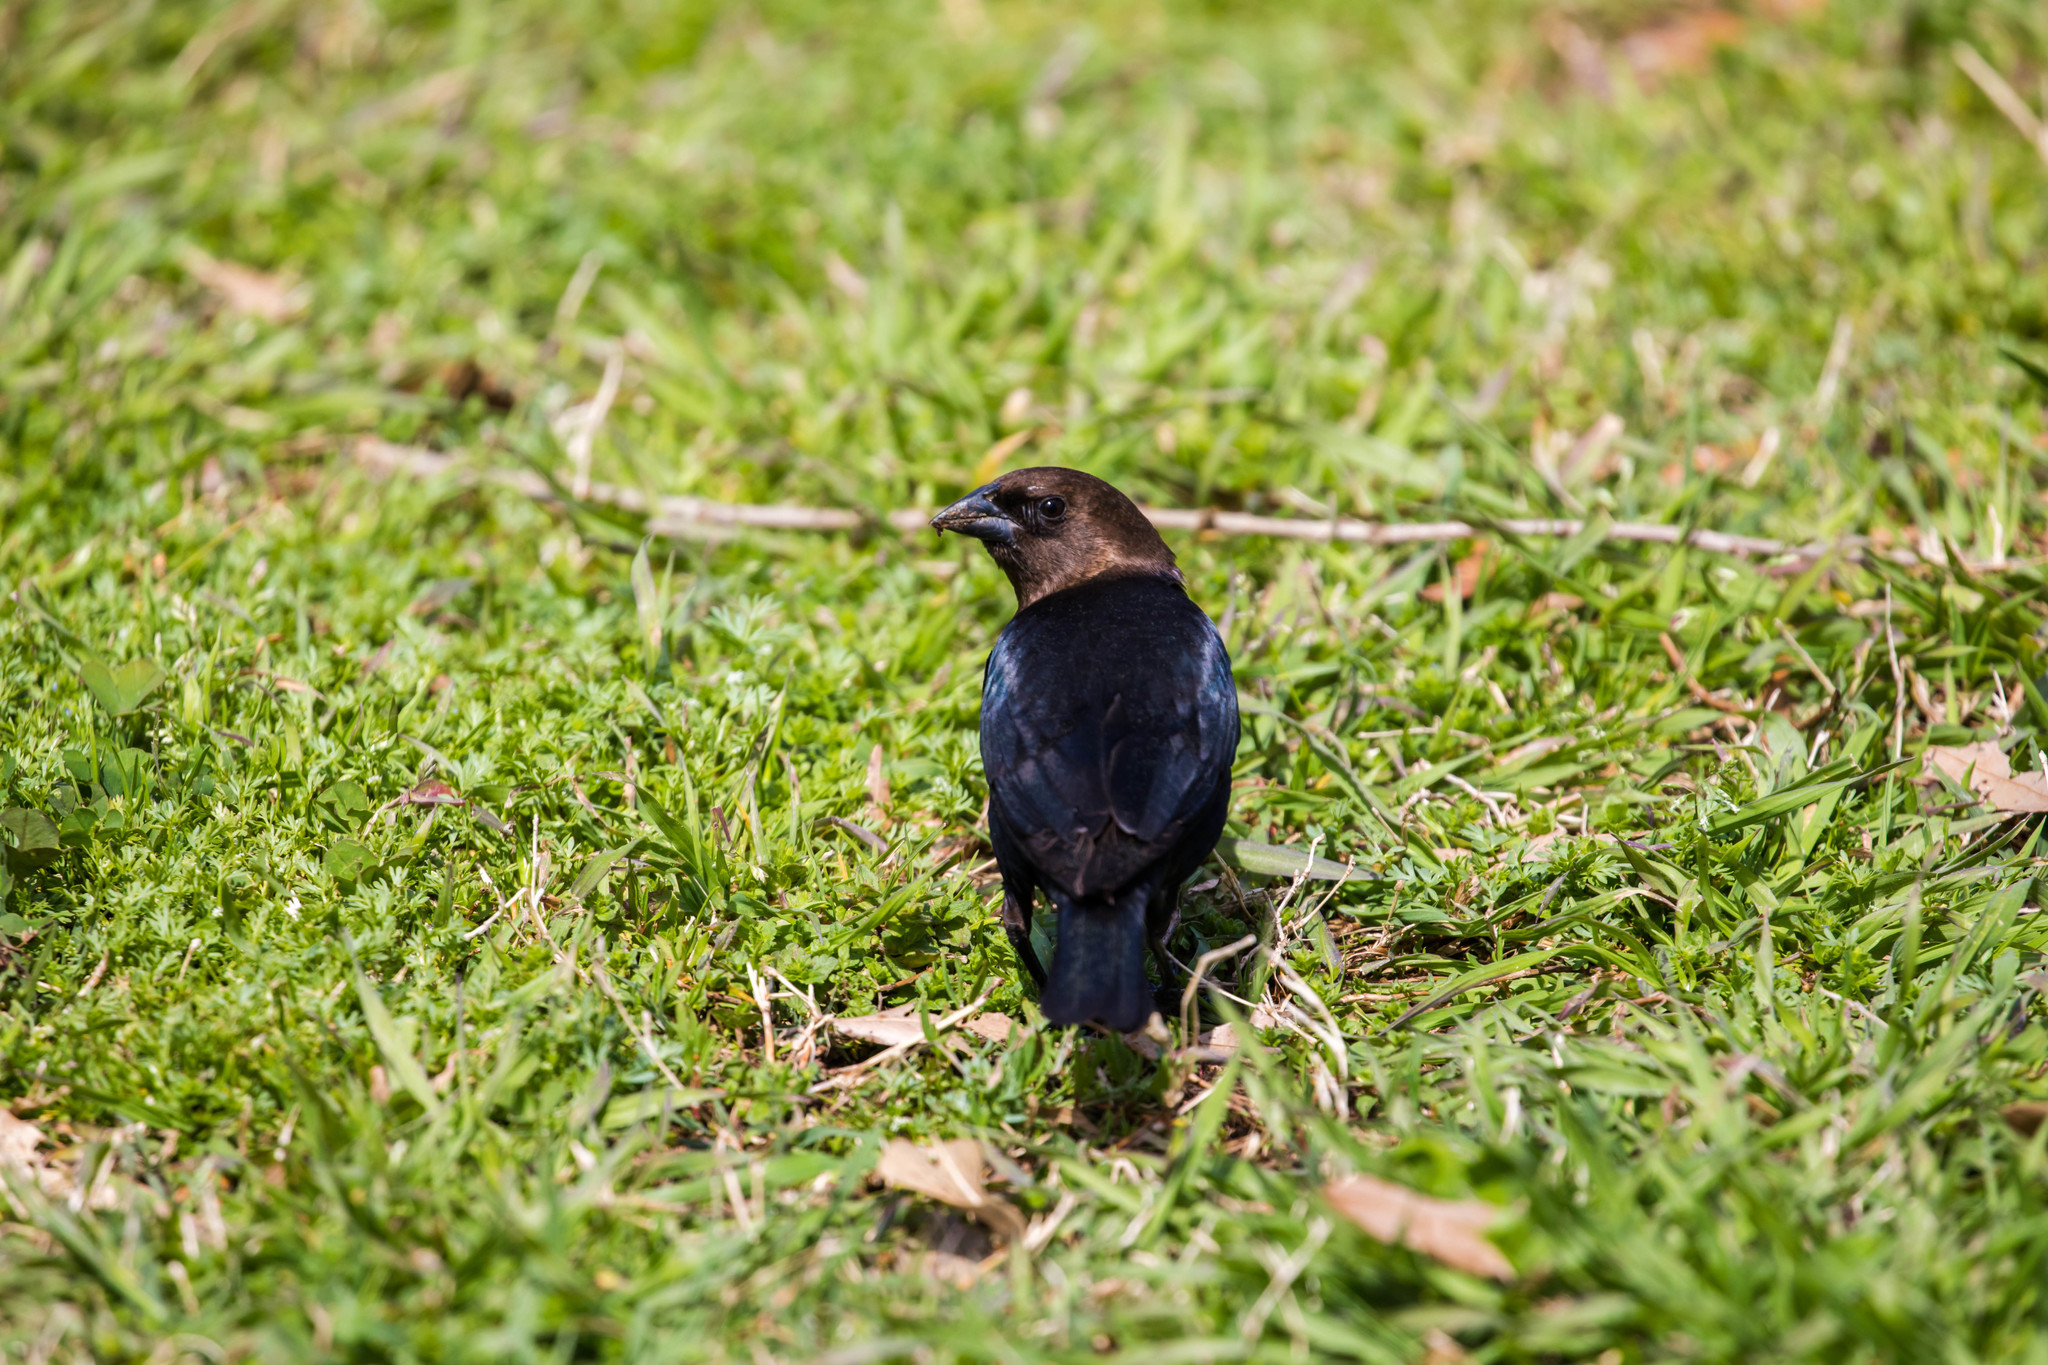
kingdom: Animalia
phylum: Chordata
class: Aves
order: Passeriformes
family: Icteridae
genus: Molothrus
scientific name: Molothrus ater
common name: Brown-headed cowbird
